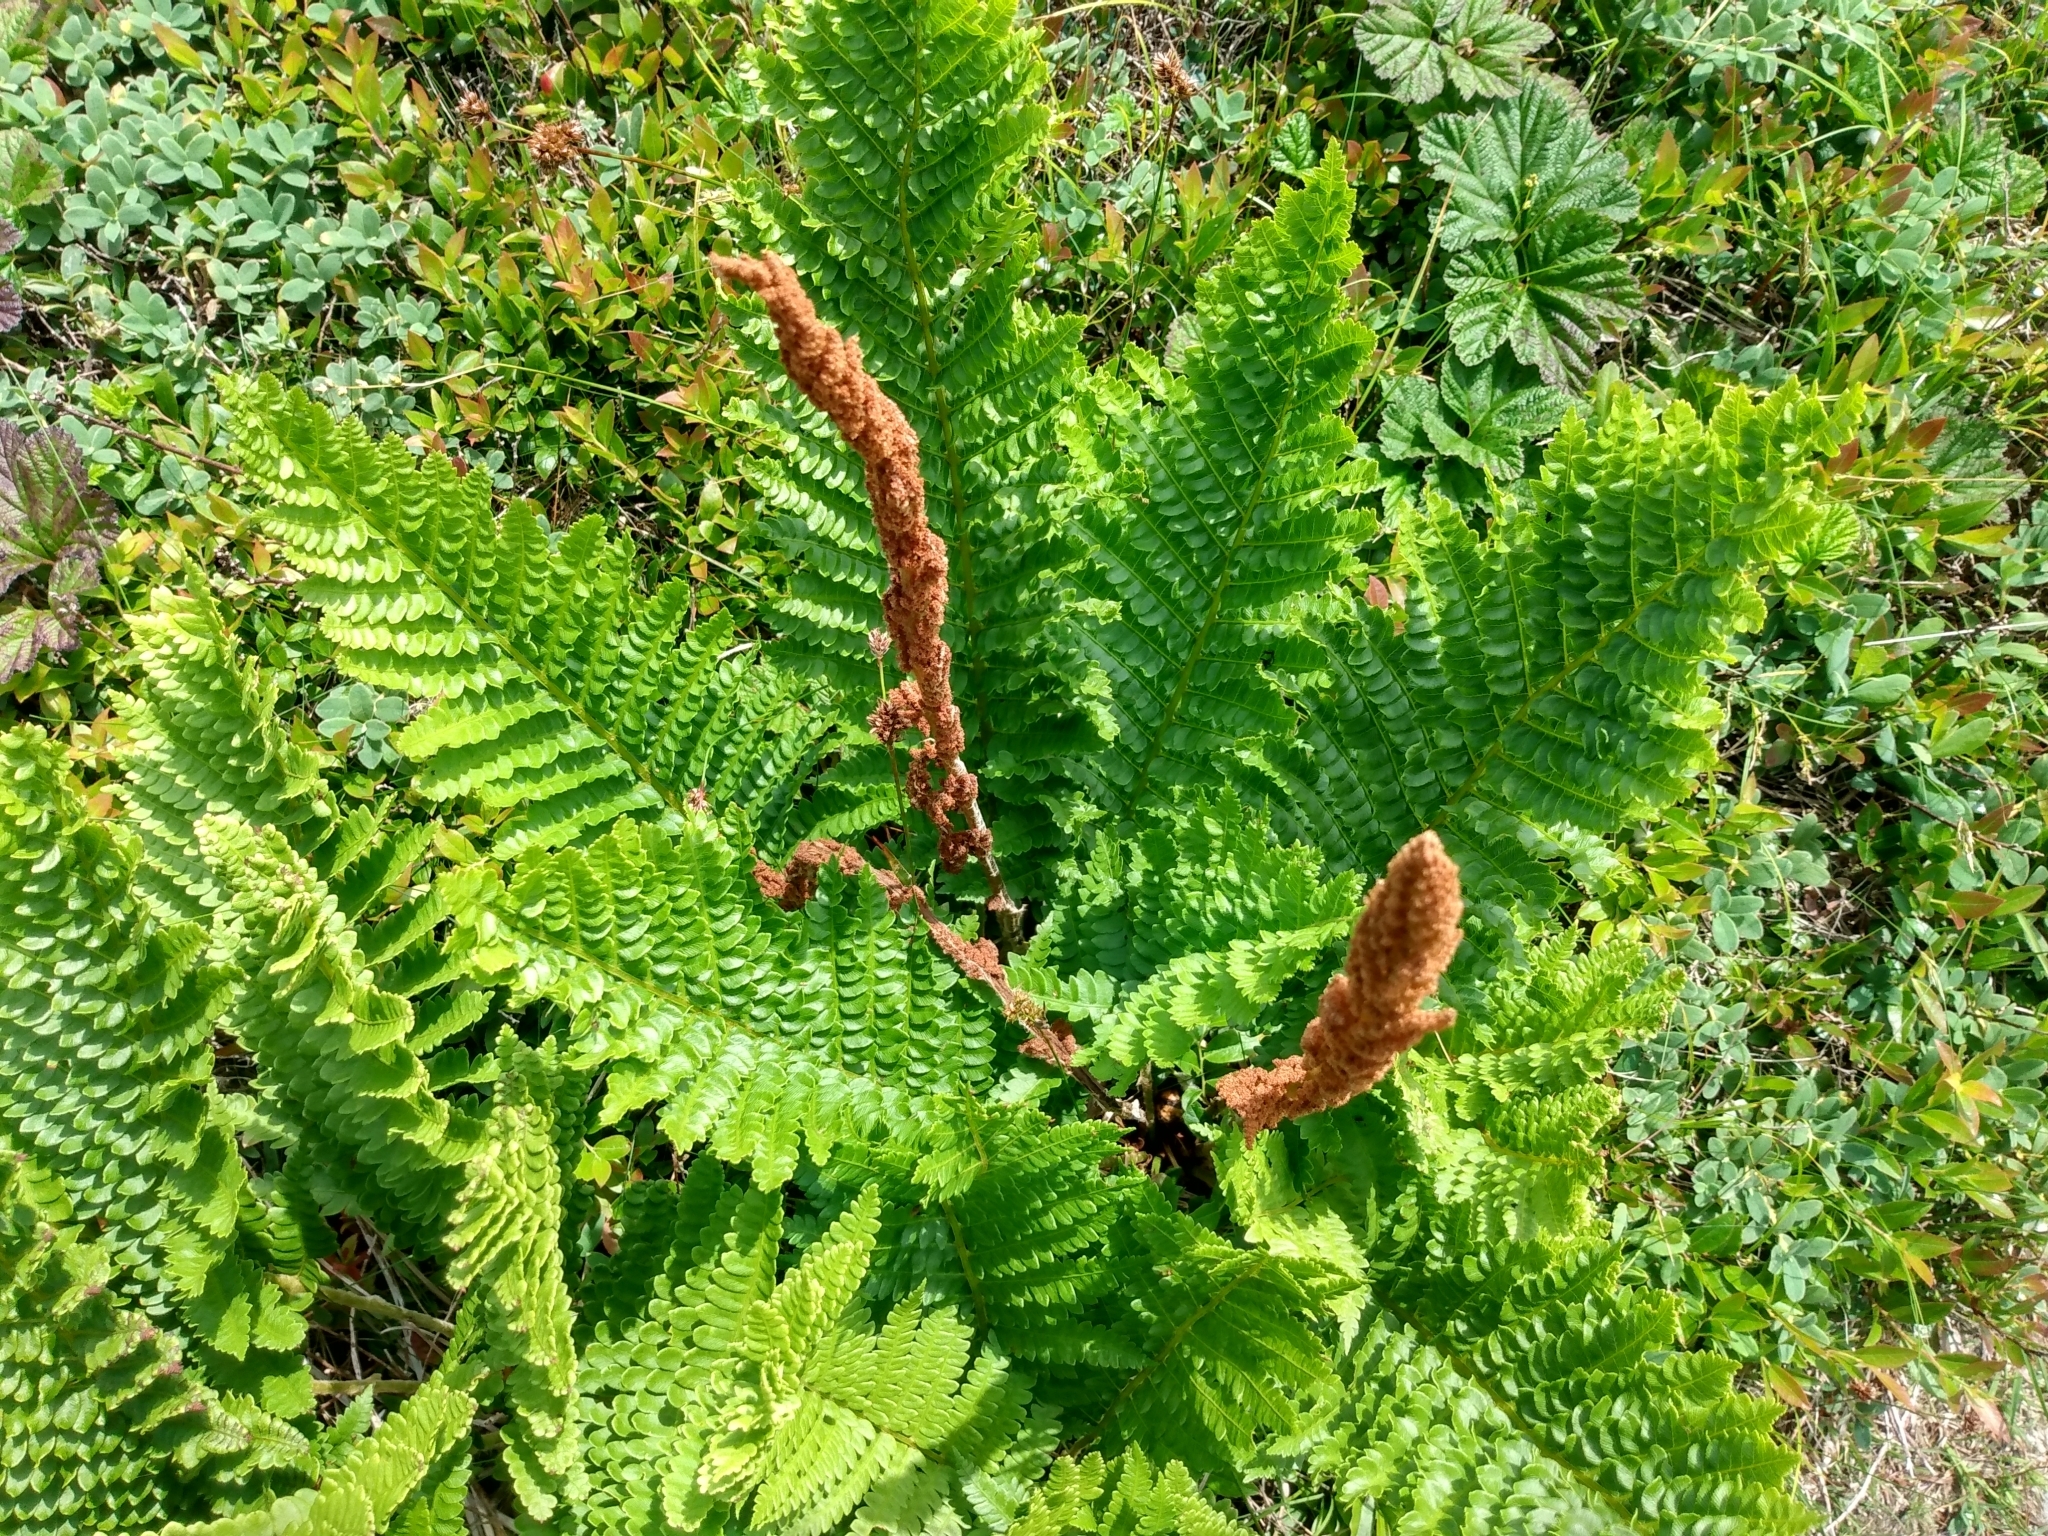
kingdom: Plantae
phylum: Tracheophyta
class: Polypodiopsida
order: Osmundales
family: Osmundaceae
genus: Osmundastrum
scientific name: Osmundastrum cinnamomeum
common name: Cinnamon fern
